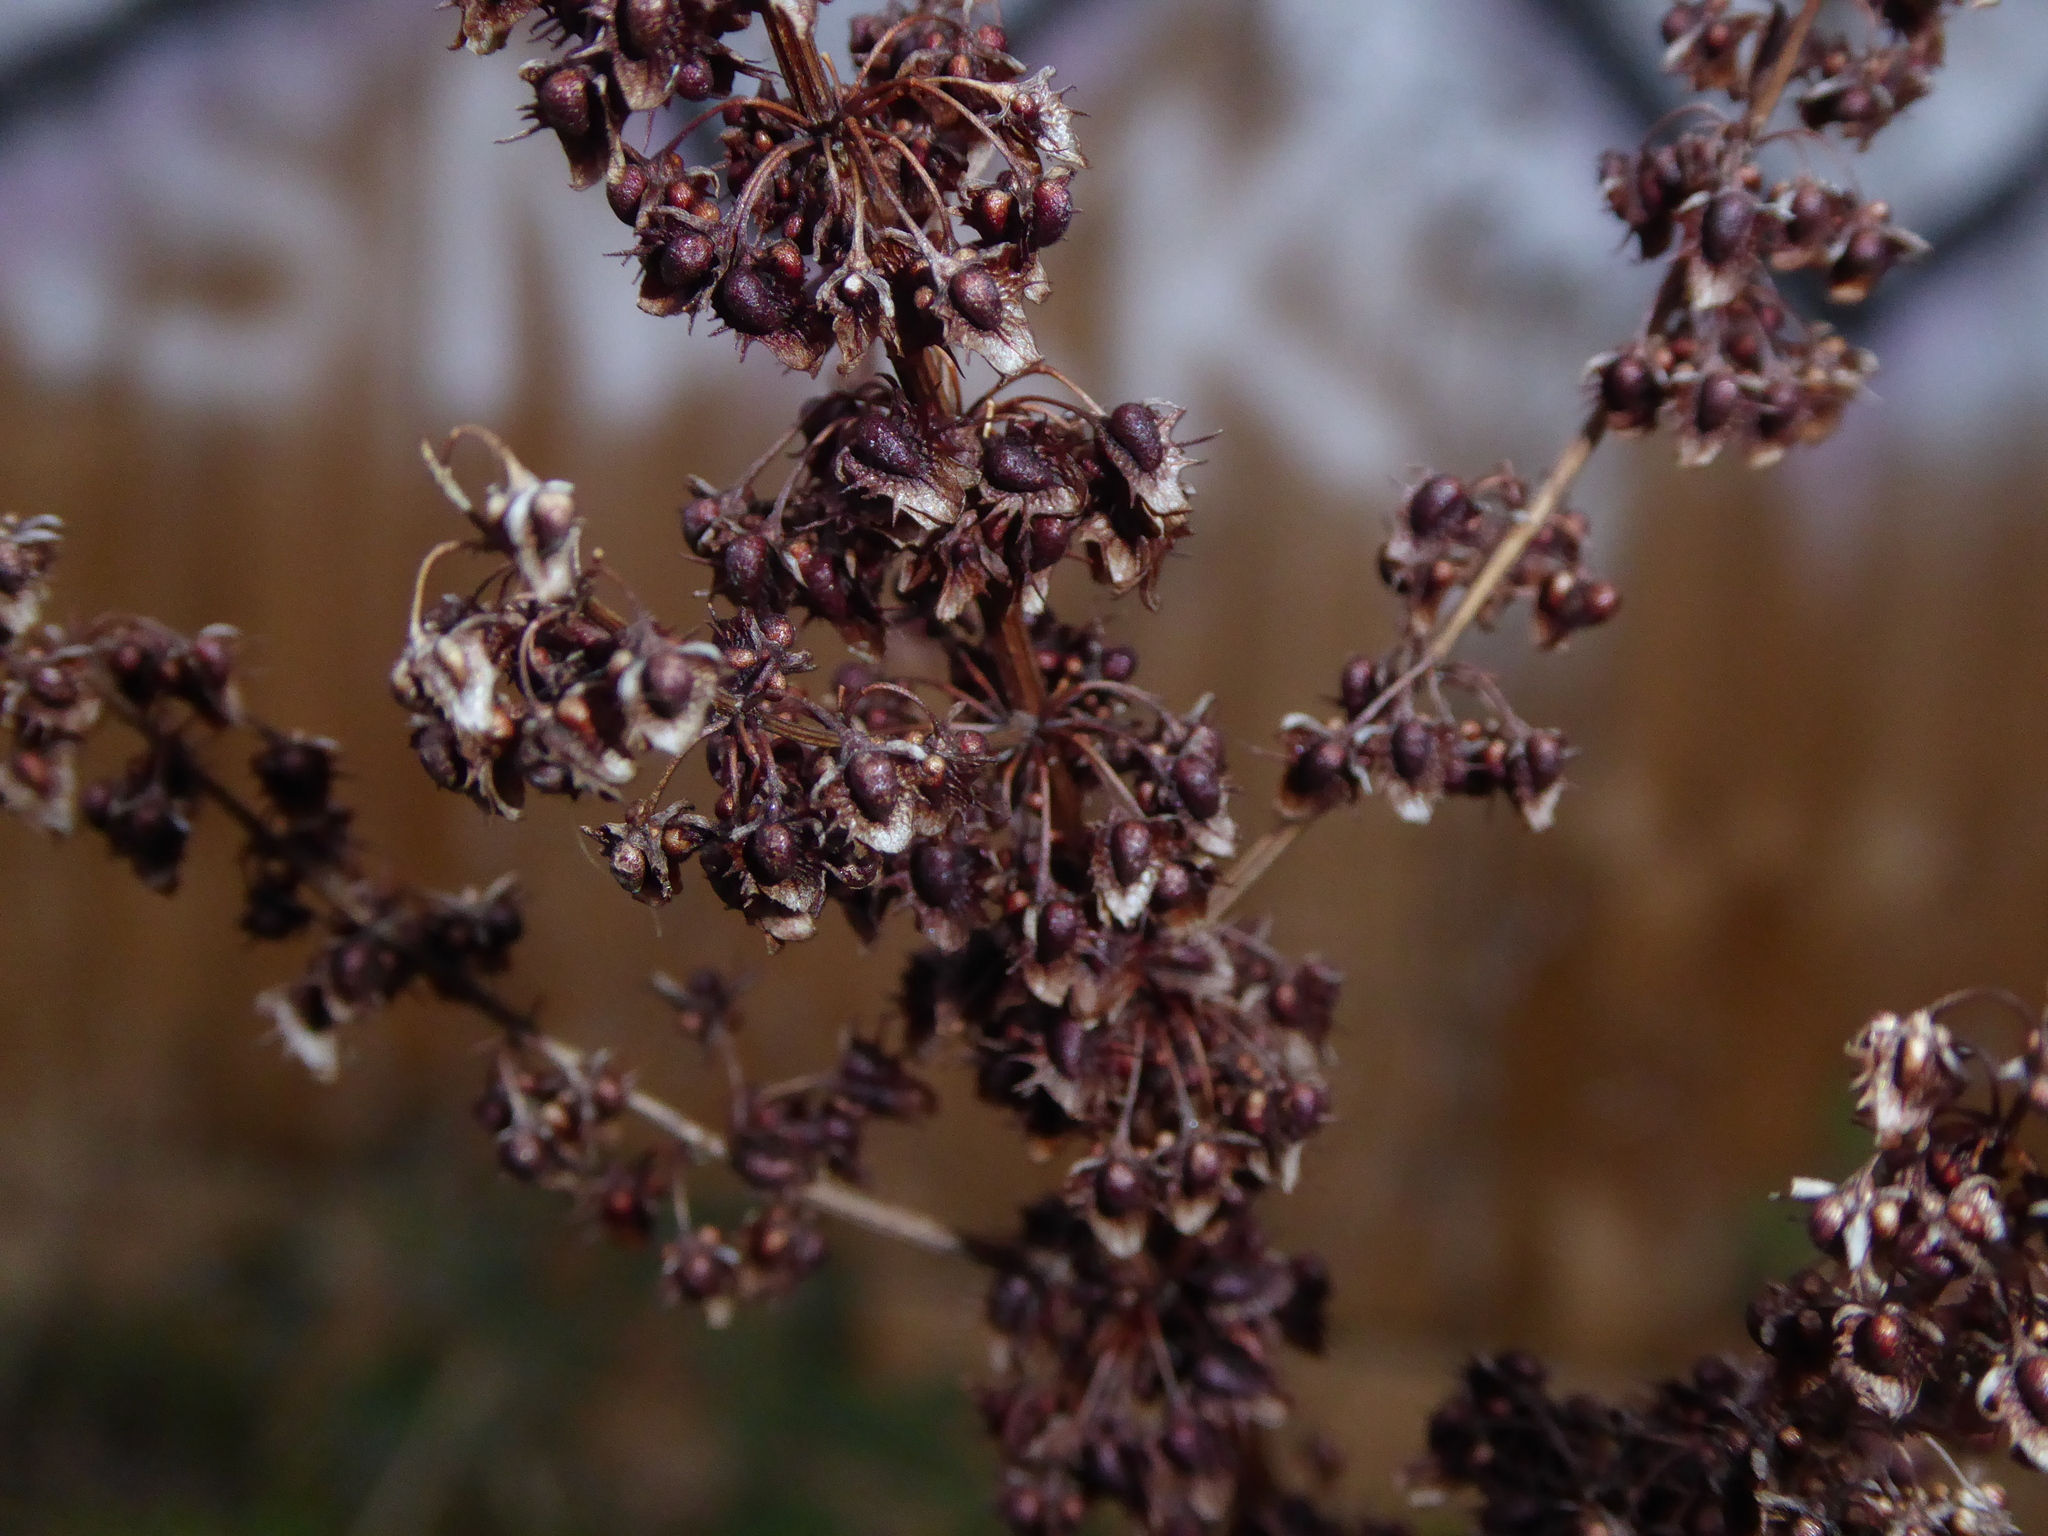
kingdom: Plantae
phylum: Tracheophyta
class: Magnoliopsida
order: Caryophyllales
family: Polygonaceae
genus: Rumex
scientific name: Rumex obtusifolius
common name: Bitter dock
